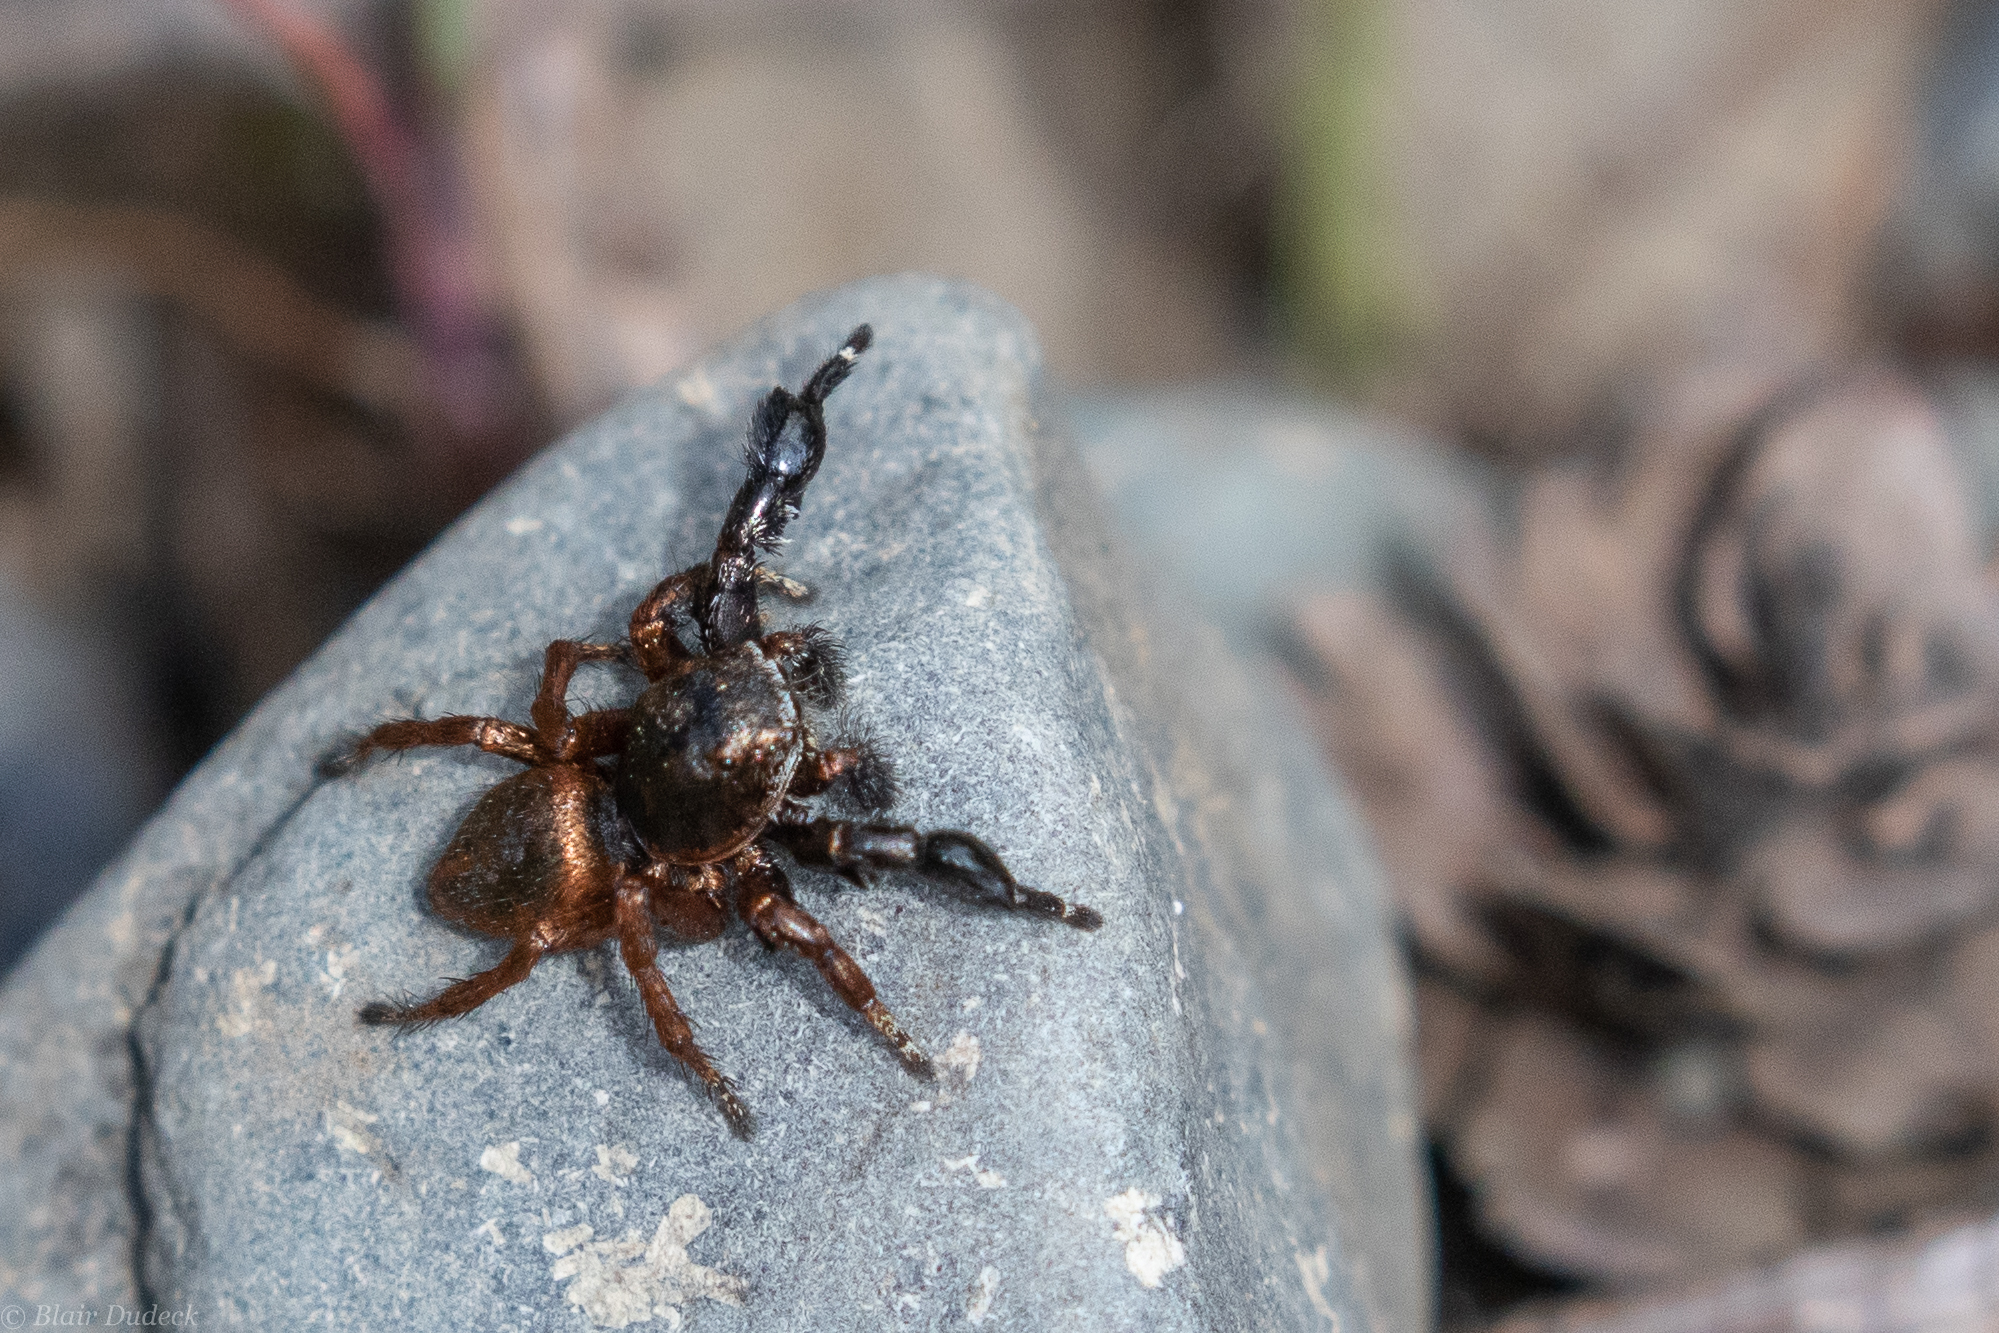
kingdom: Animalia
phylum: Arthropoda
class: Arachnida
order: Araneae
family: Salticidae
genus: Habronattus
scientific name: Habronattus oregonensis
